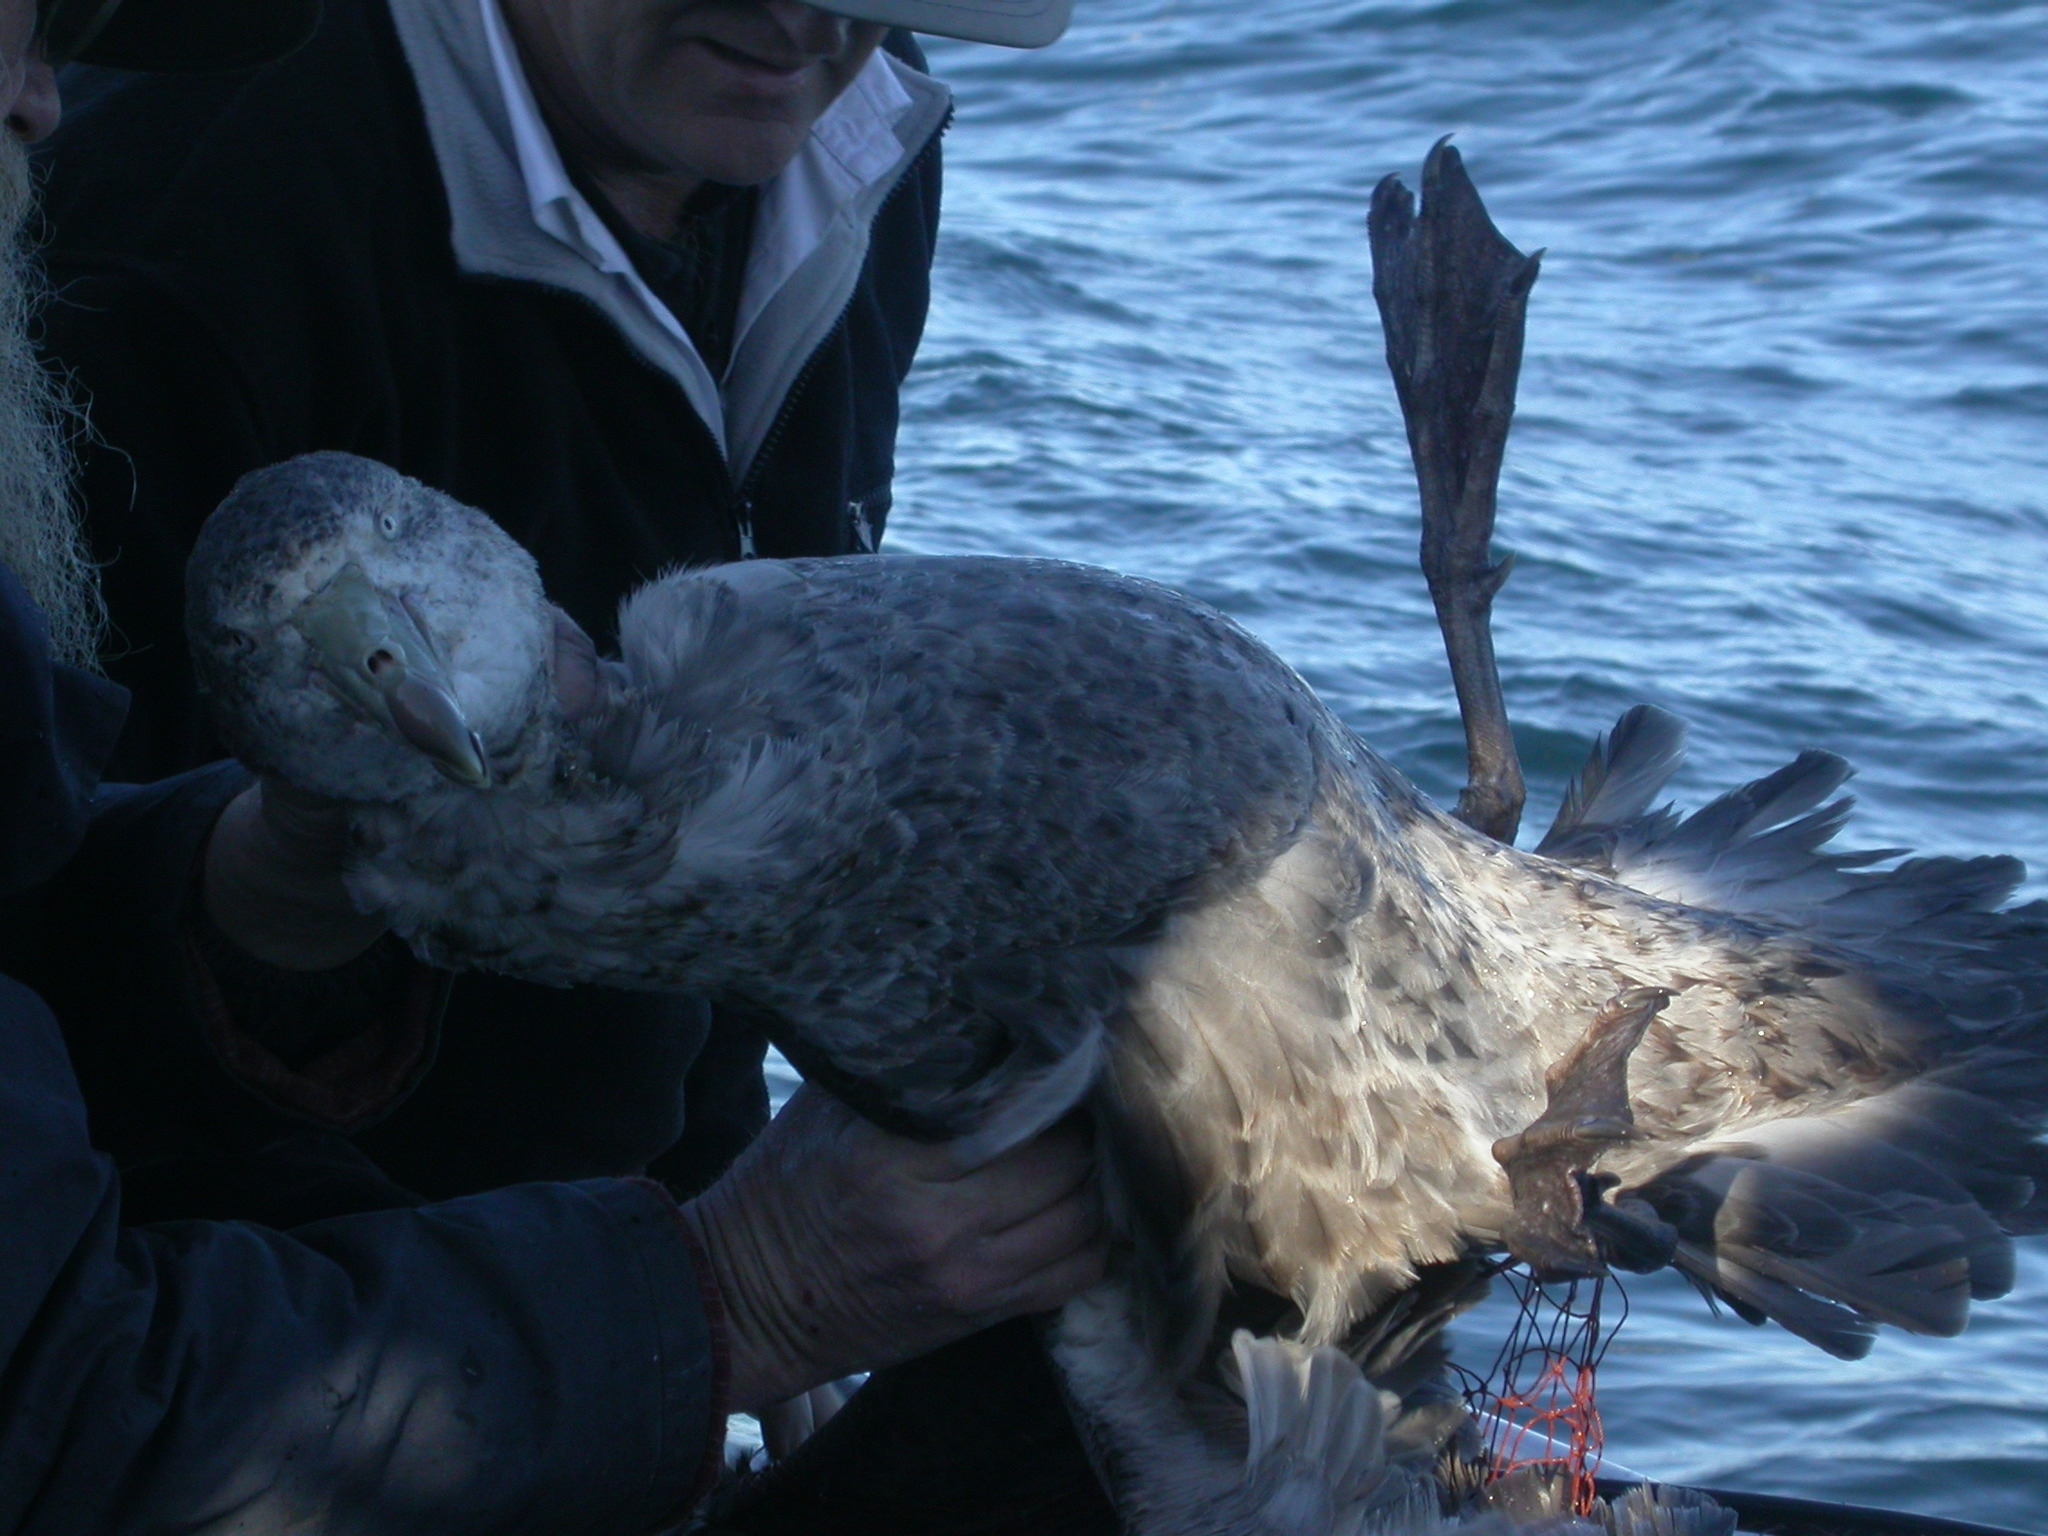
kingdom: Animalia
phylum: Chordata
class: Aves
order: Procellariiformes
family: Procellariidae
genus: Macronectes
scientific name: Macronectes halli
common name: Northern giant petrel
